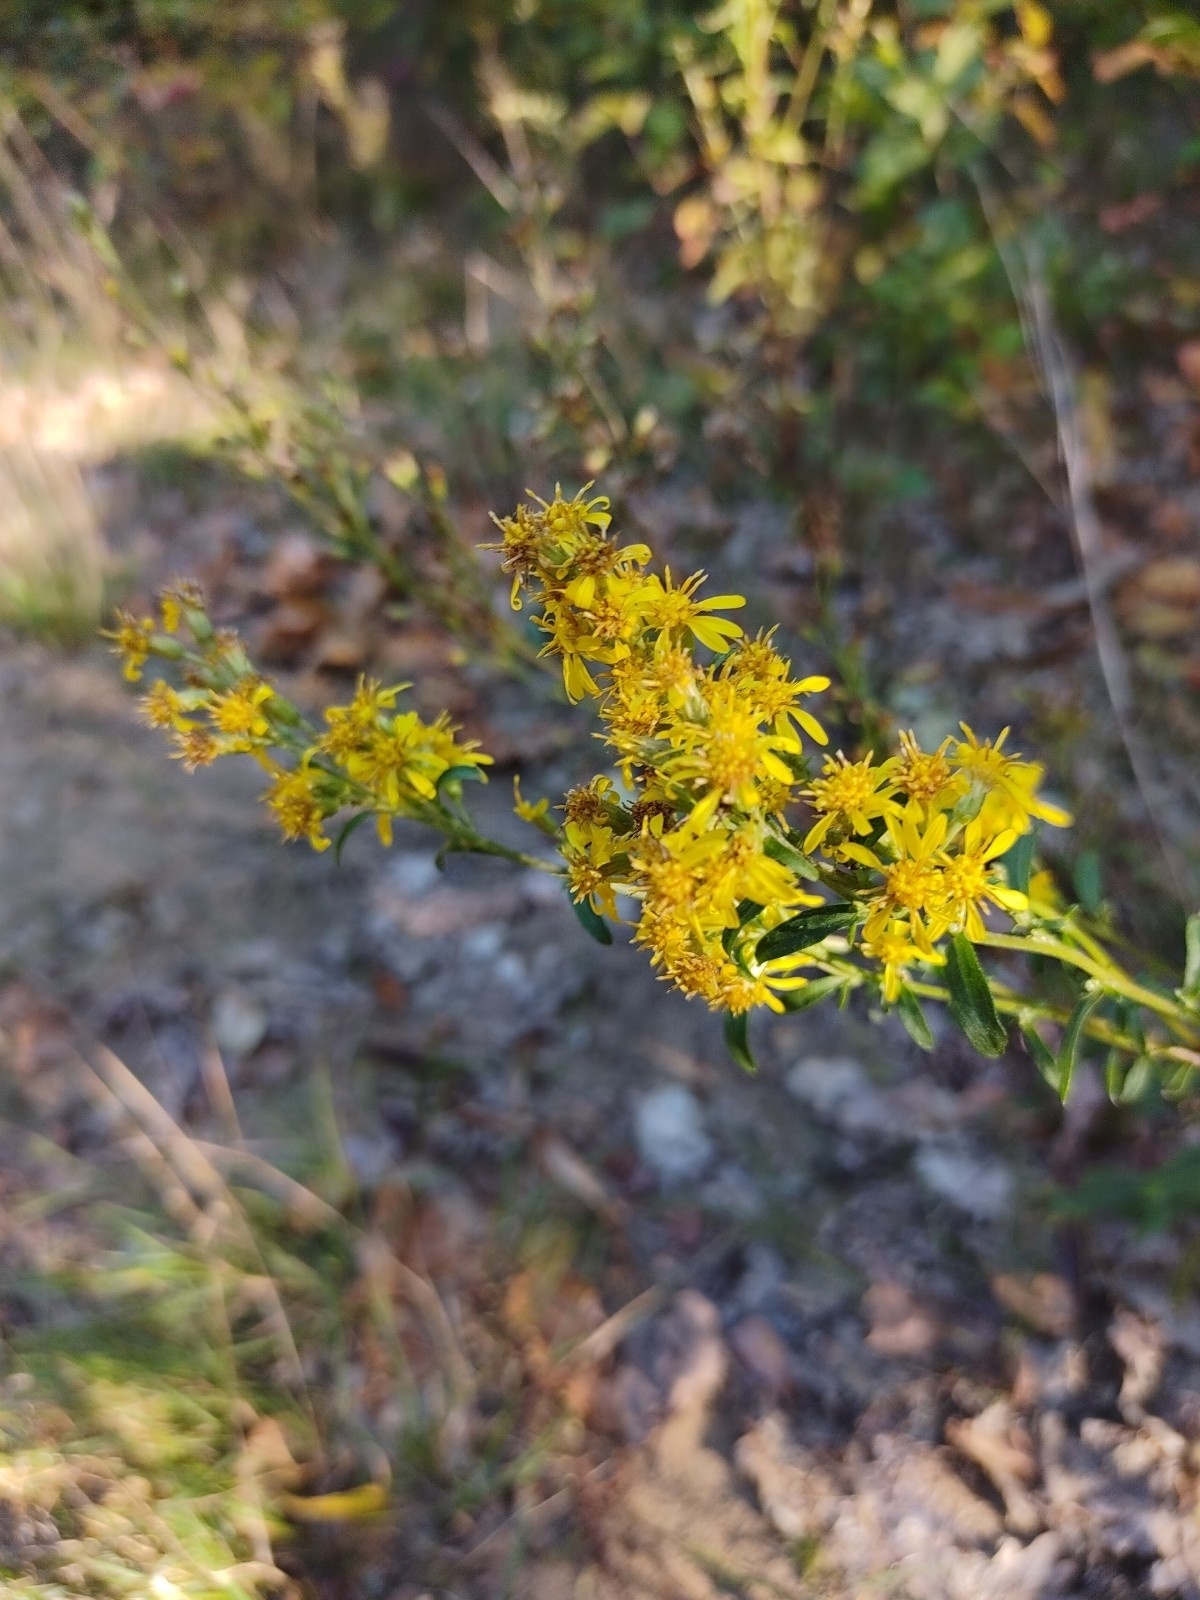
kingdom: Plantae
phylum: Tracheophyta
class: Magnoliopsida
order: Asterales
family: Asteraceae
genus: Solidago
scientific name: Solidago virgaurea
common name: Goldenrod
